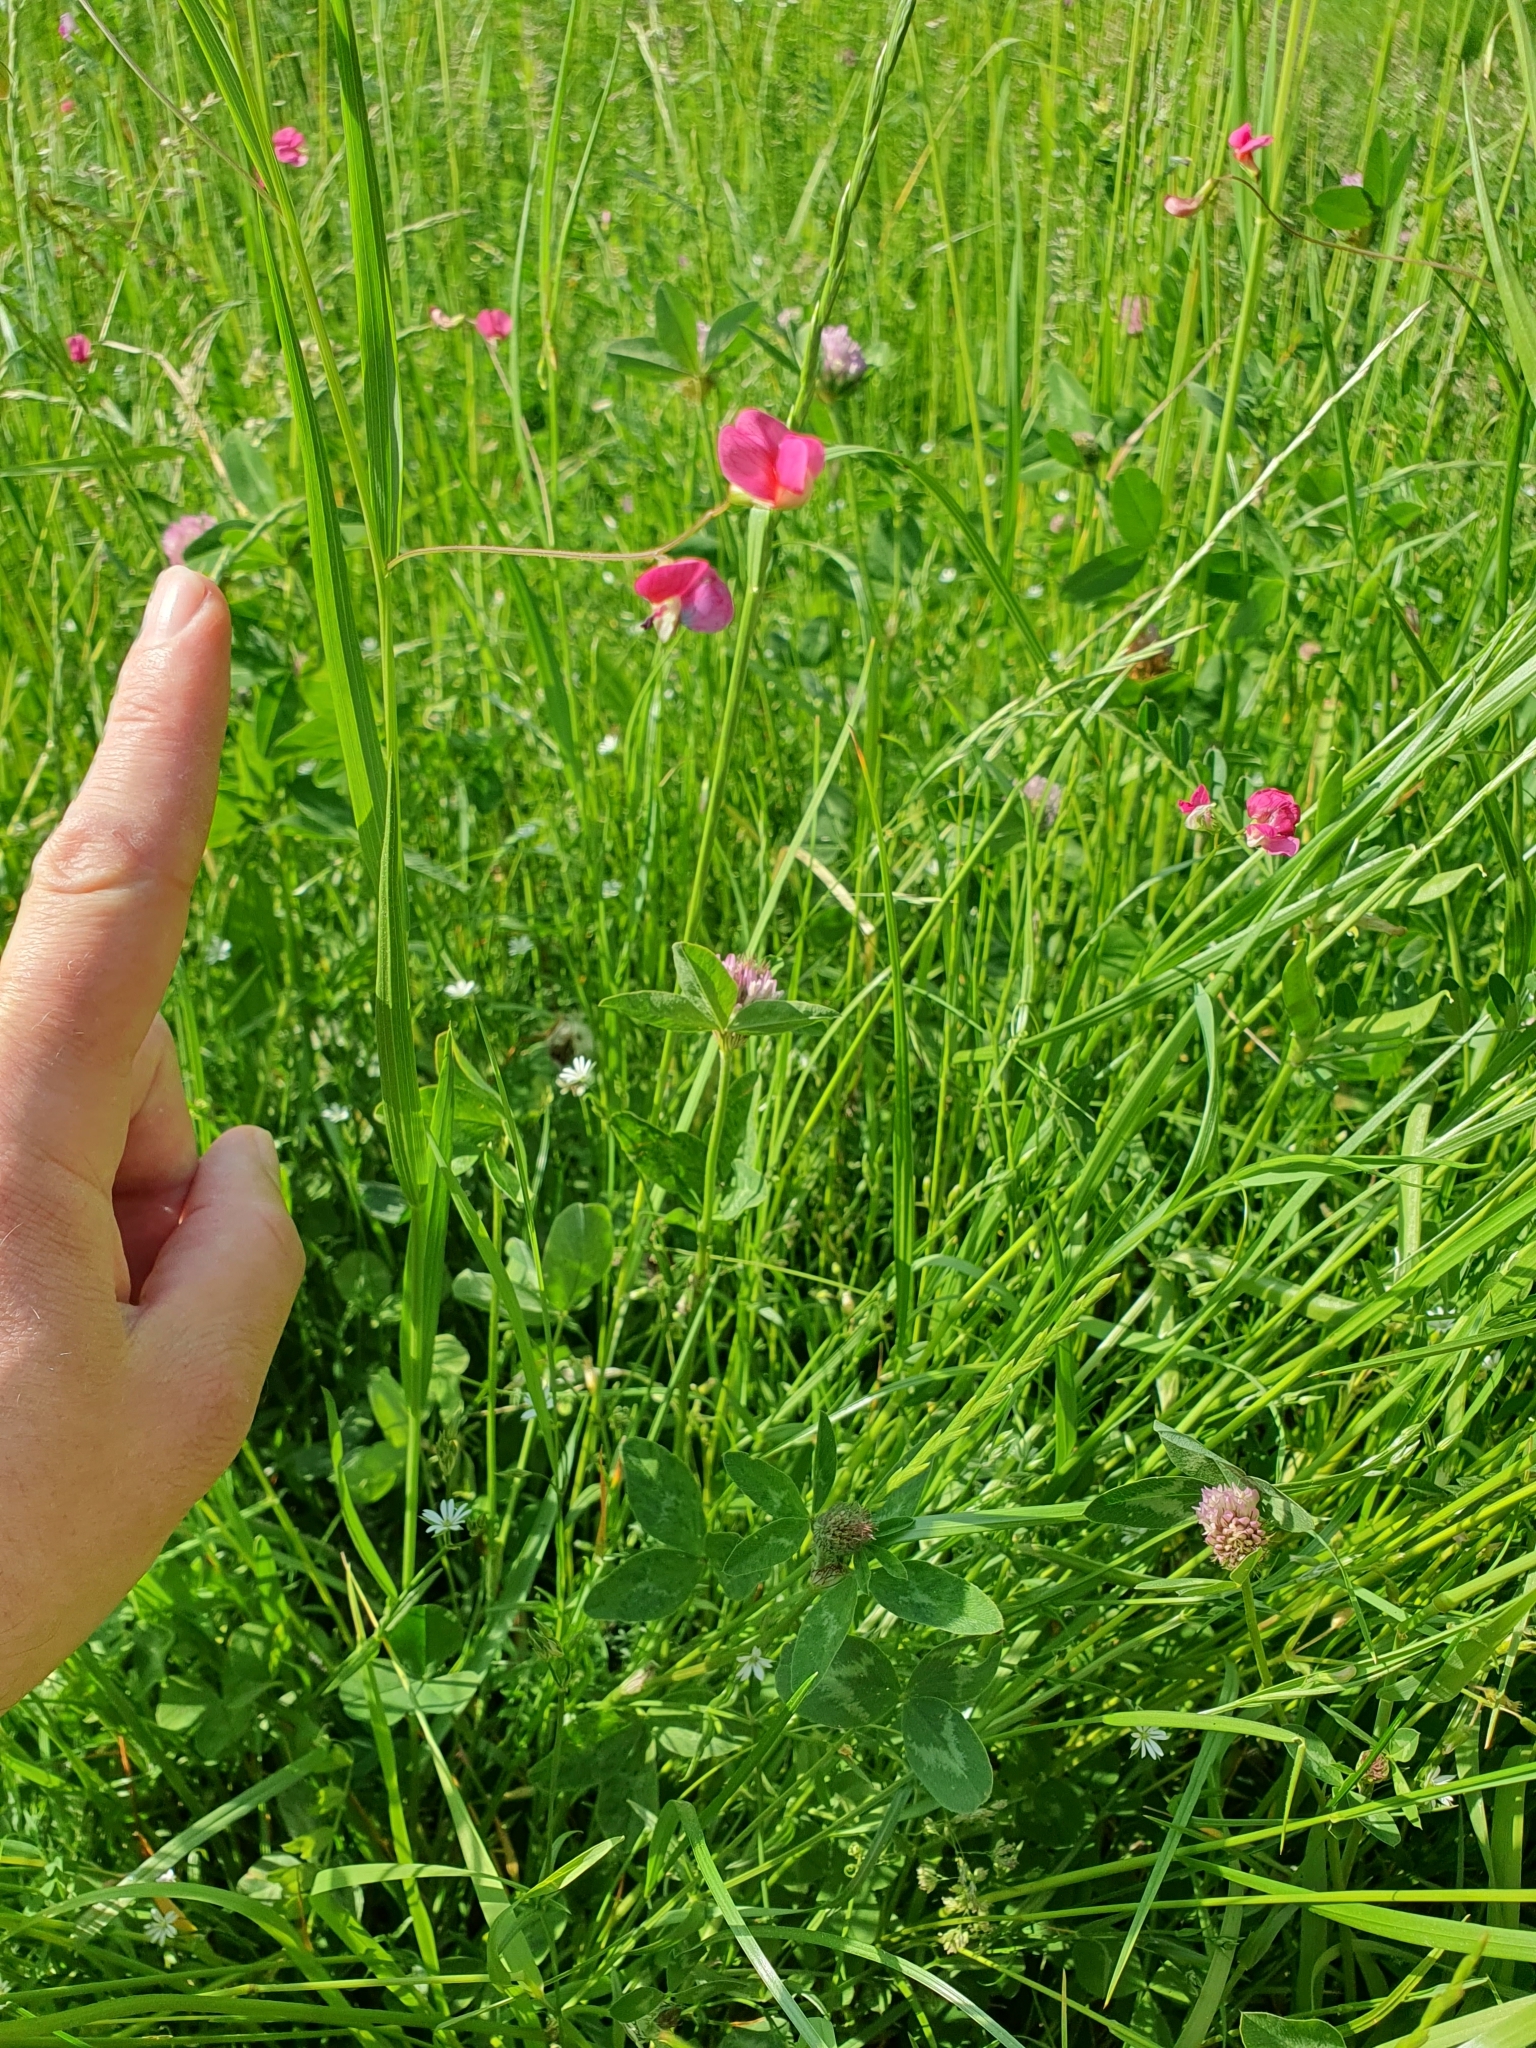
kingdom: Plantae
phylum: Tracheophyta
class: Magnoliopsida
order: Fabales
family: Fabaceae
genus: Lathyrus
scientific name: Lathyrus nissolia
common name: Grass vetchling
